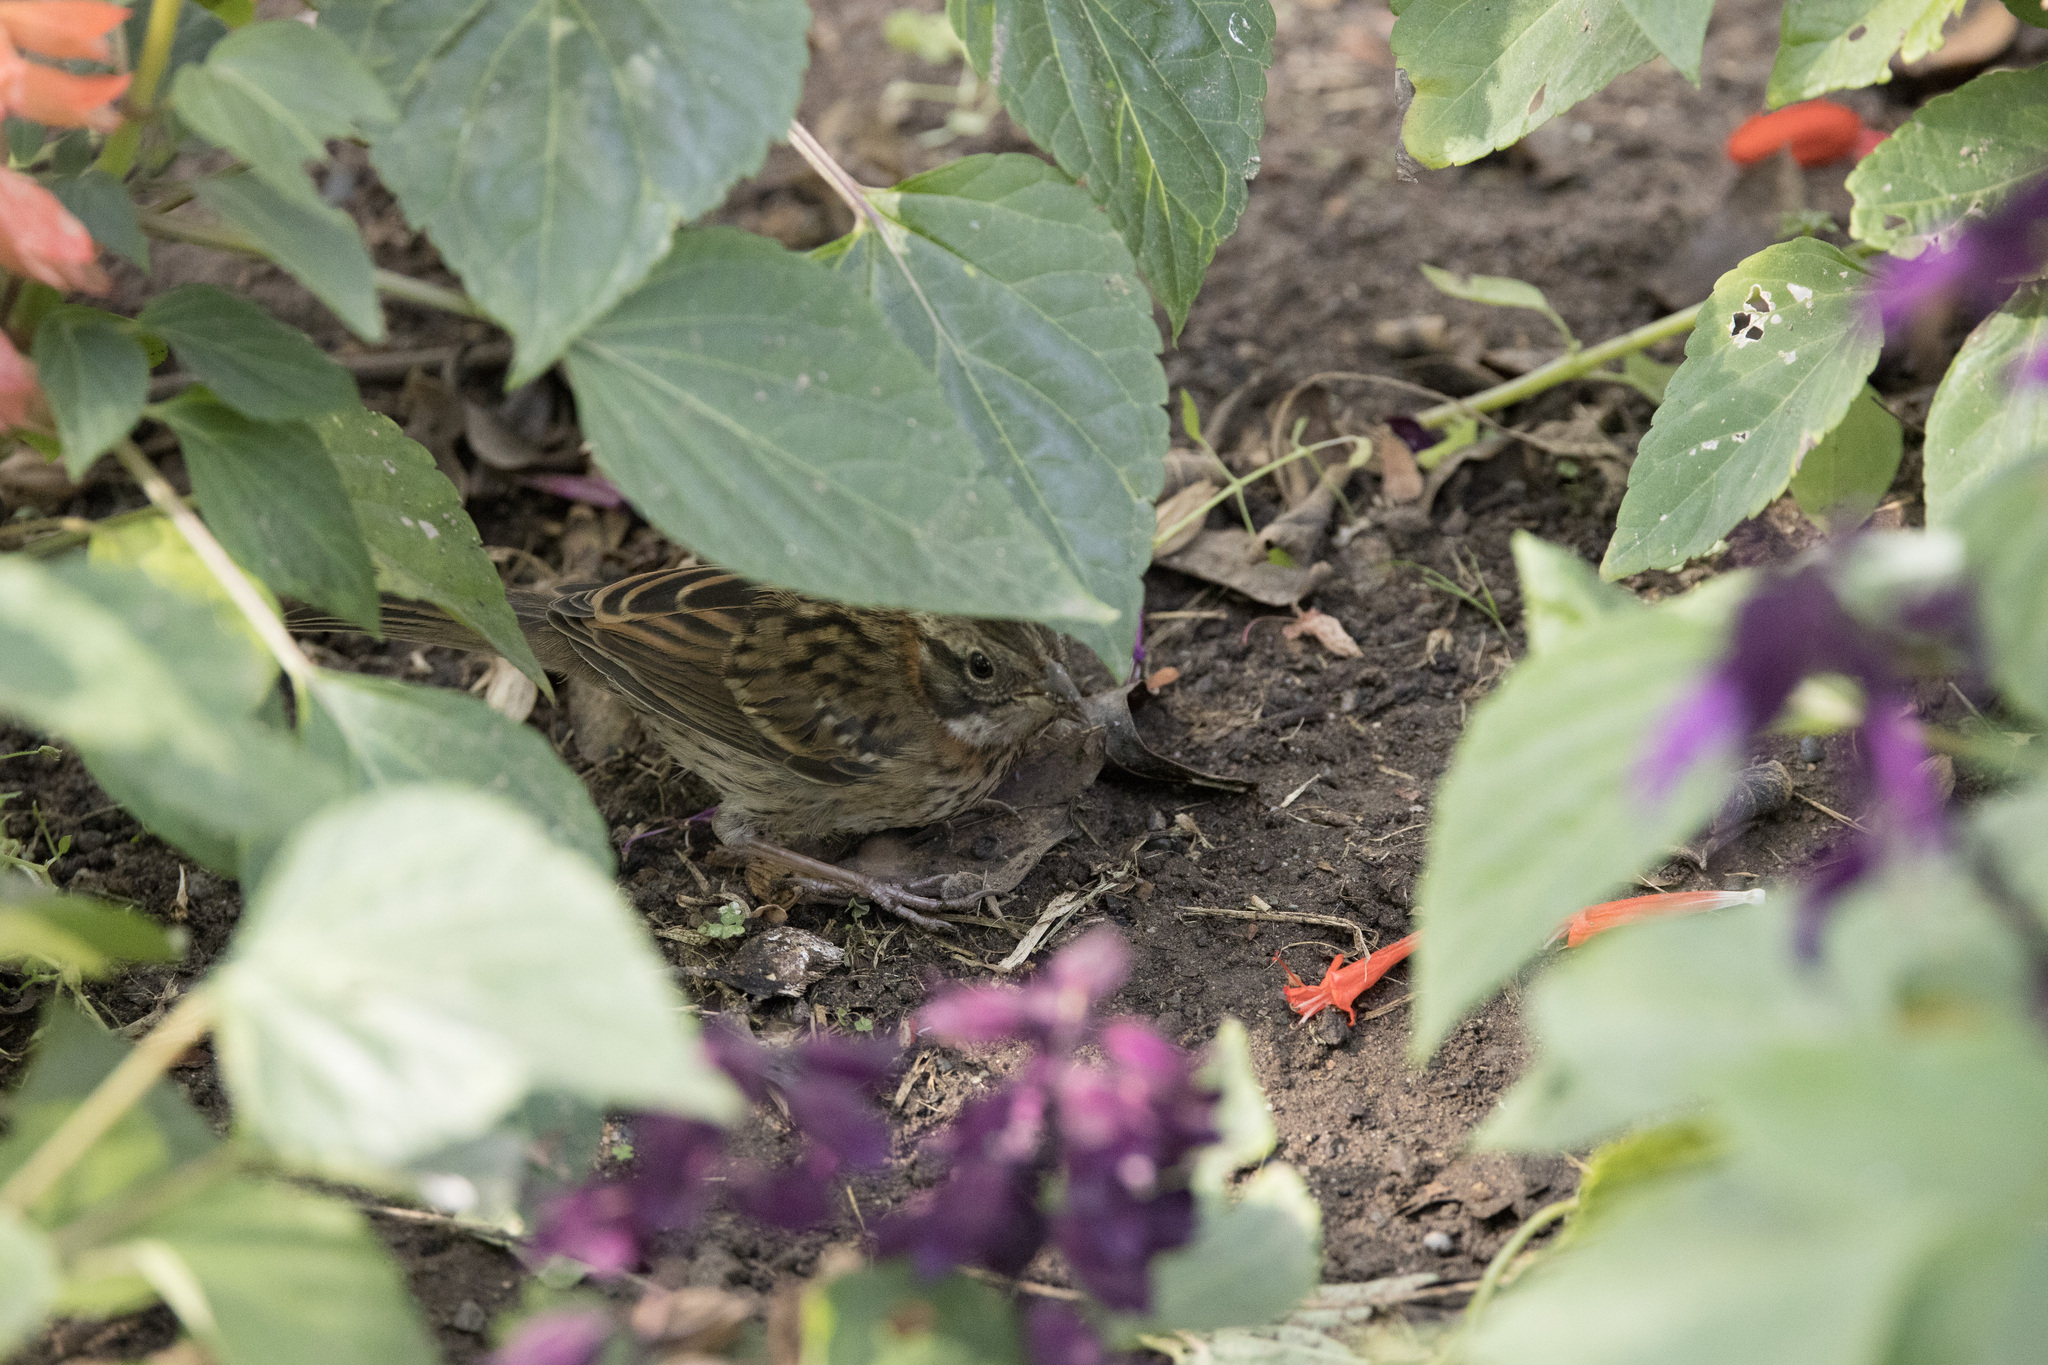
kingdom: Animalia
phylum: Chordata
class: Aves
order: Passeriformes
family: Passerellidae
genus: Zonotrichia
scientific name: Zonotrichia capensis
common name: Rufous-collared sparrow
